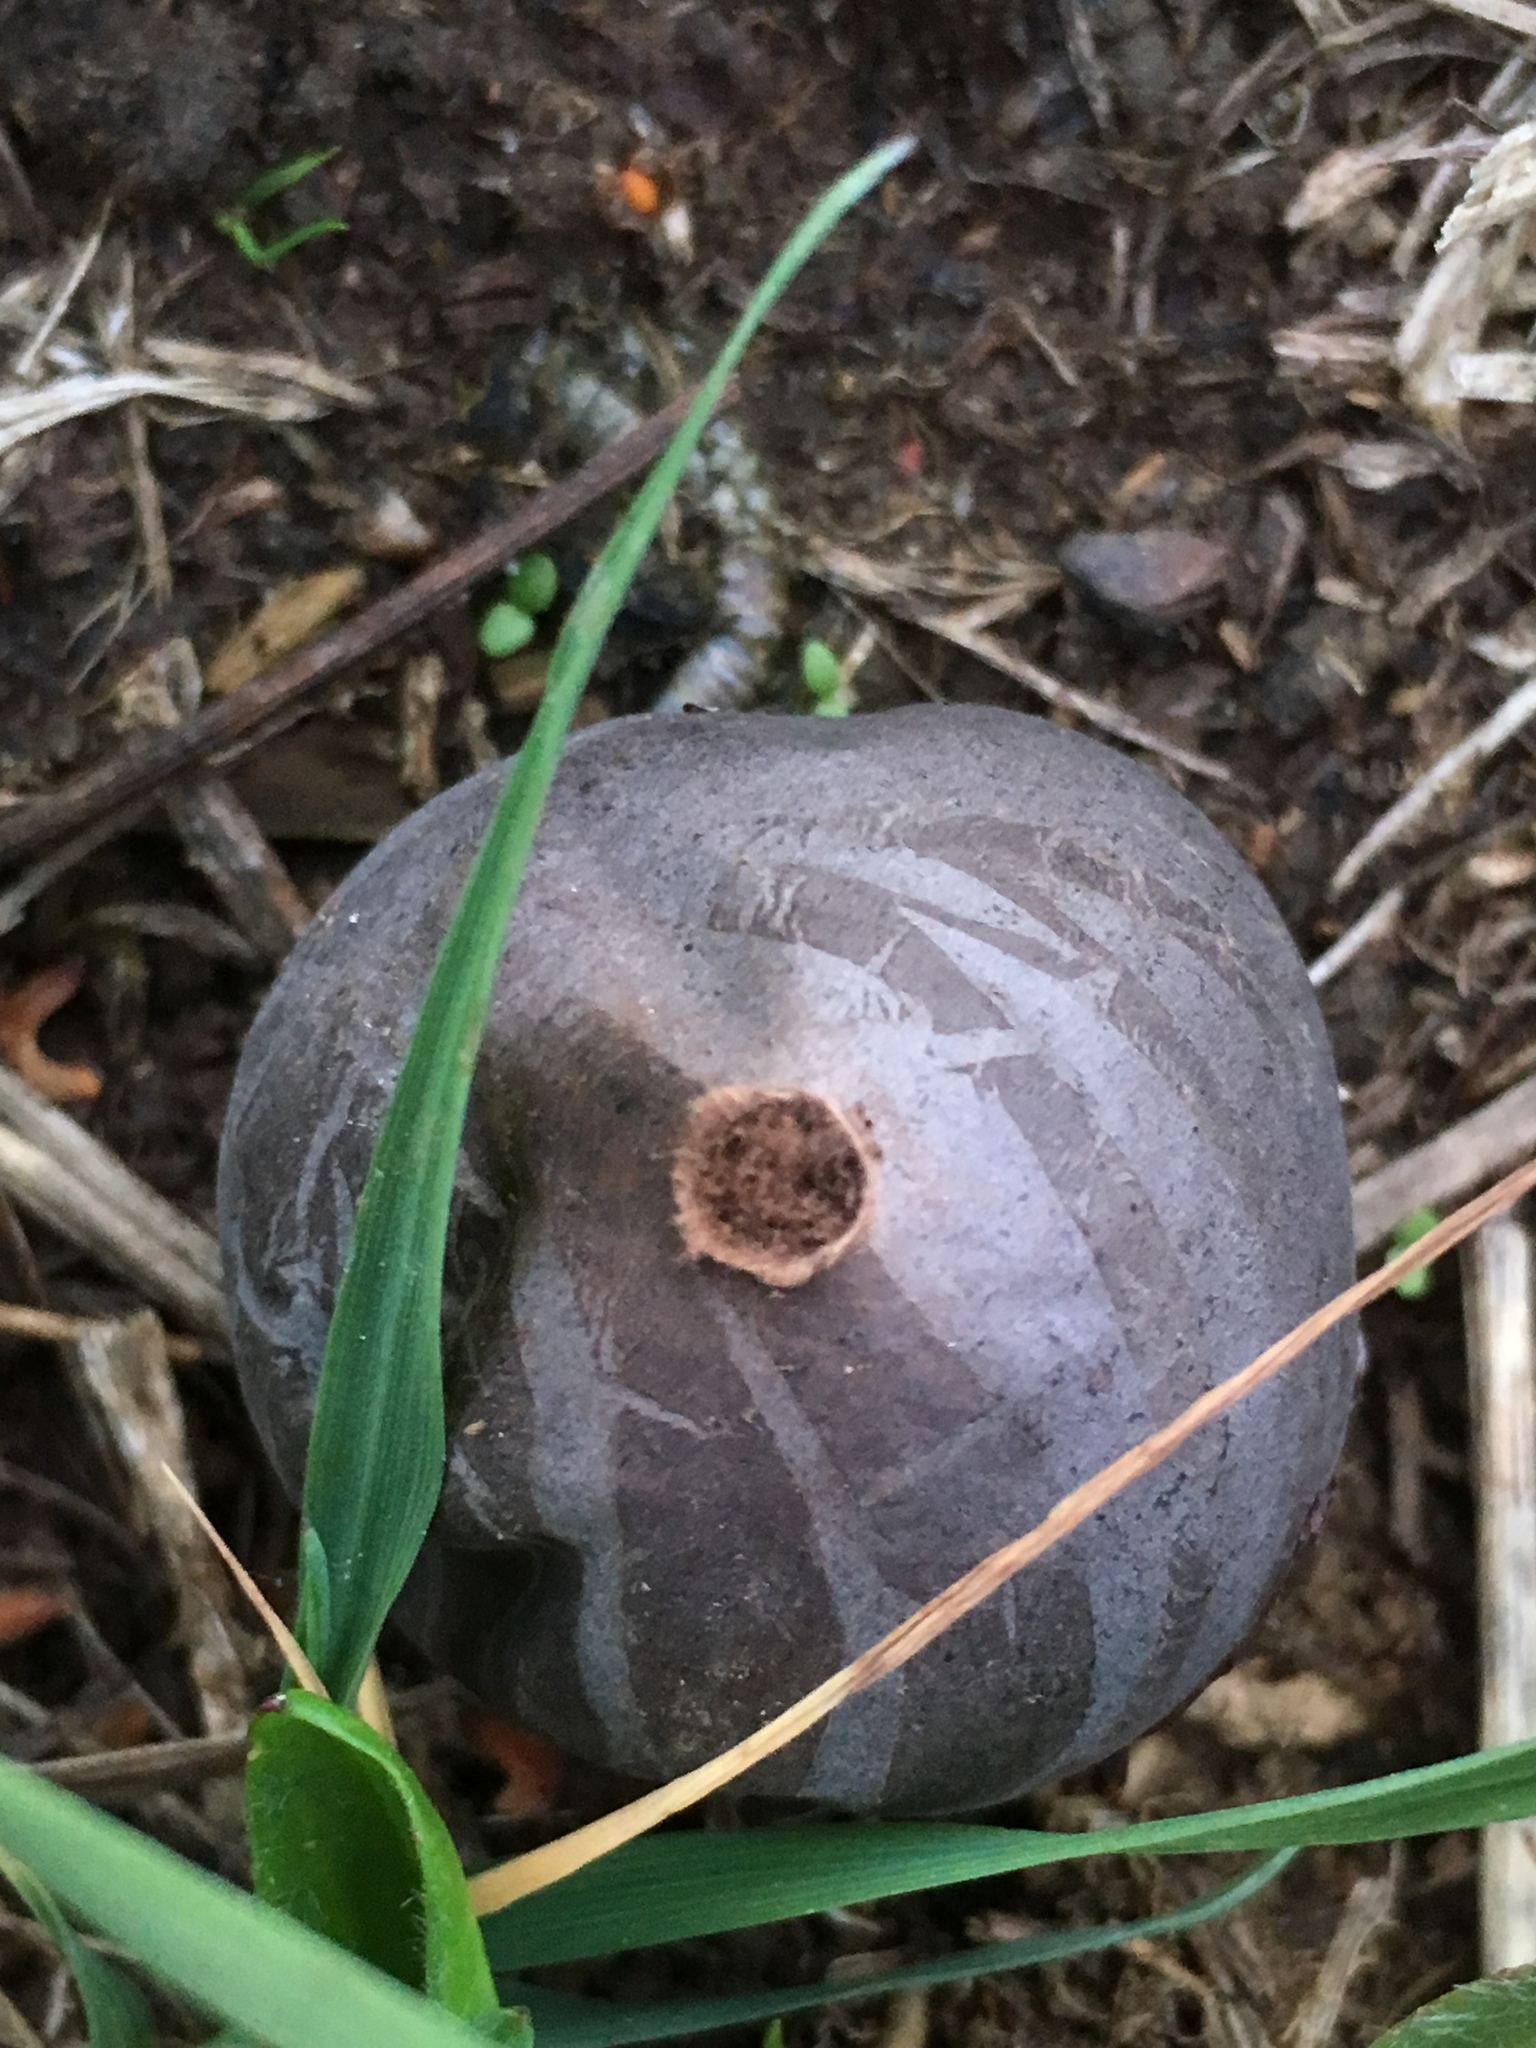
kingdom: Fungi
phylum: Basidiomycota
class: Agaricomycetes
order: Agaricales
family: Lycoperdaceae
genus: Bovista
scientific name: Bovista plumbea
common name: Grey puffball
